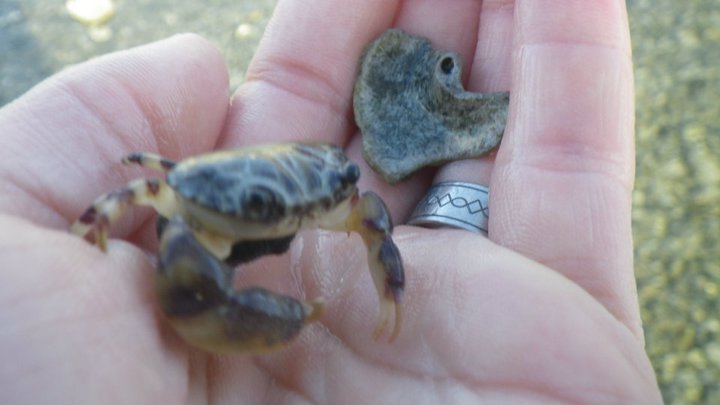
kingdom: Animalia
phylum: Arthropoda
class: Malacostraca
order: Decapoda
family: Oziidae
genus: Lydia
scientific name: Lydia annulipes
